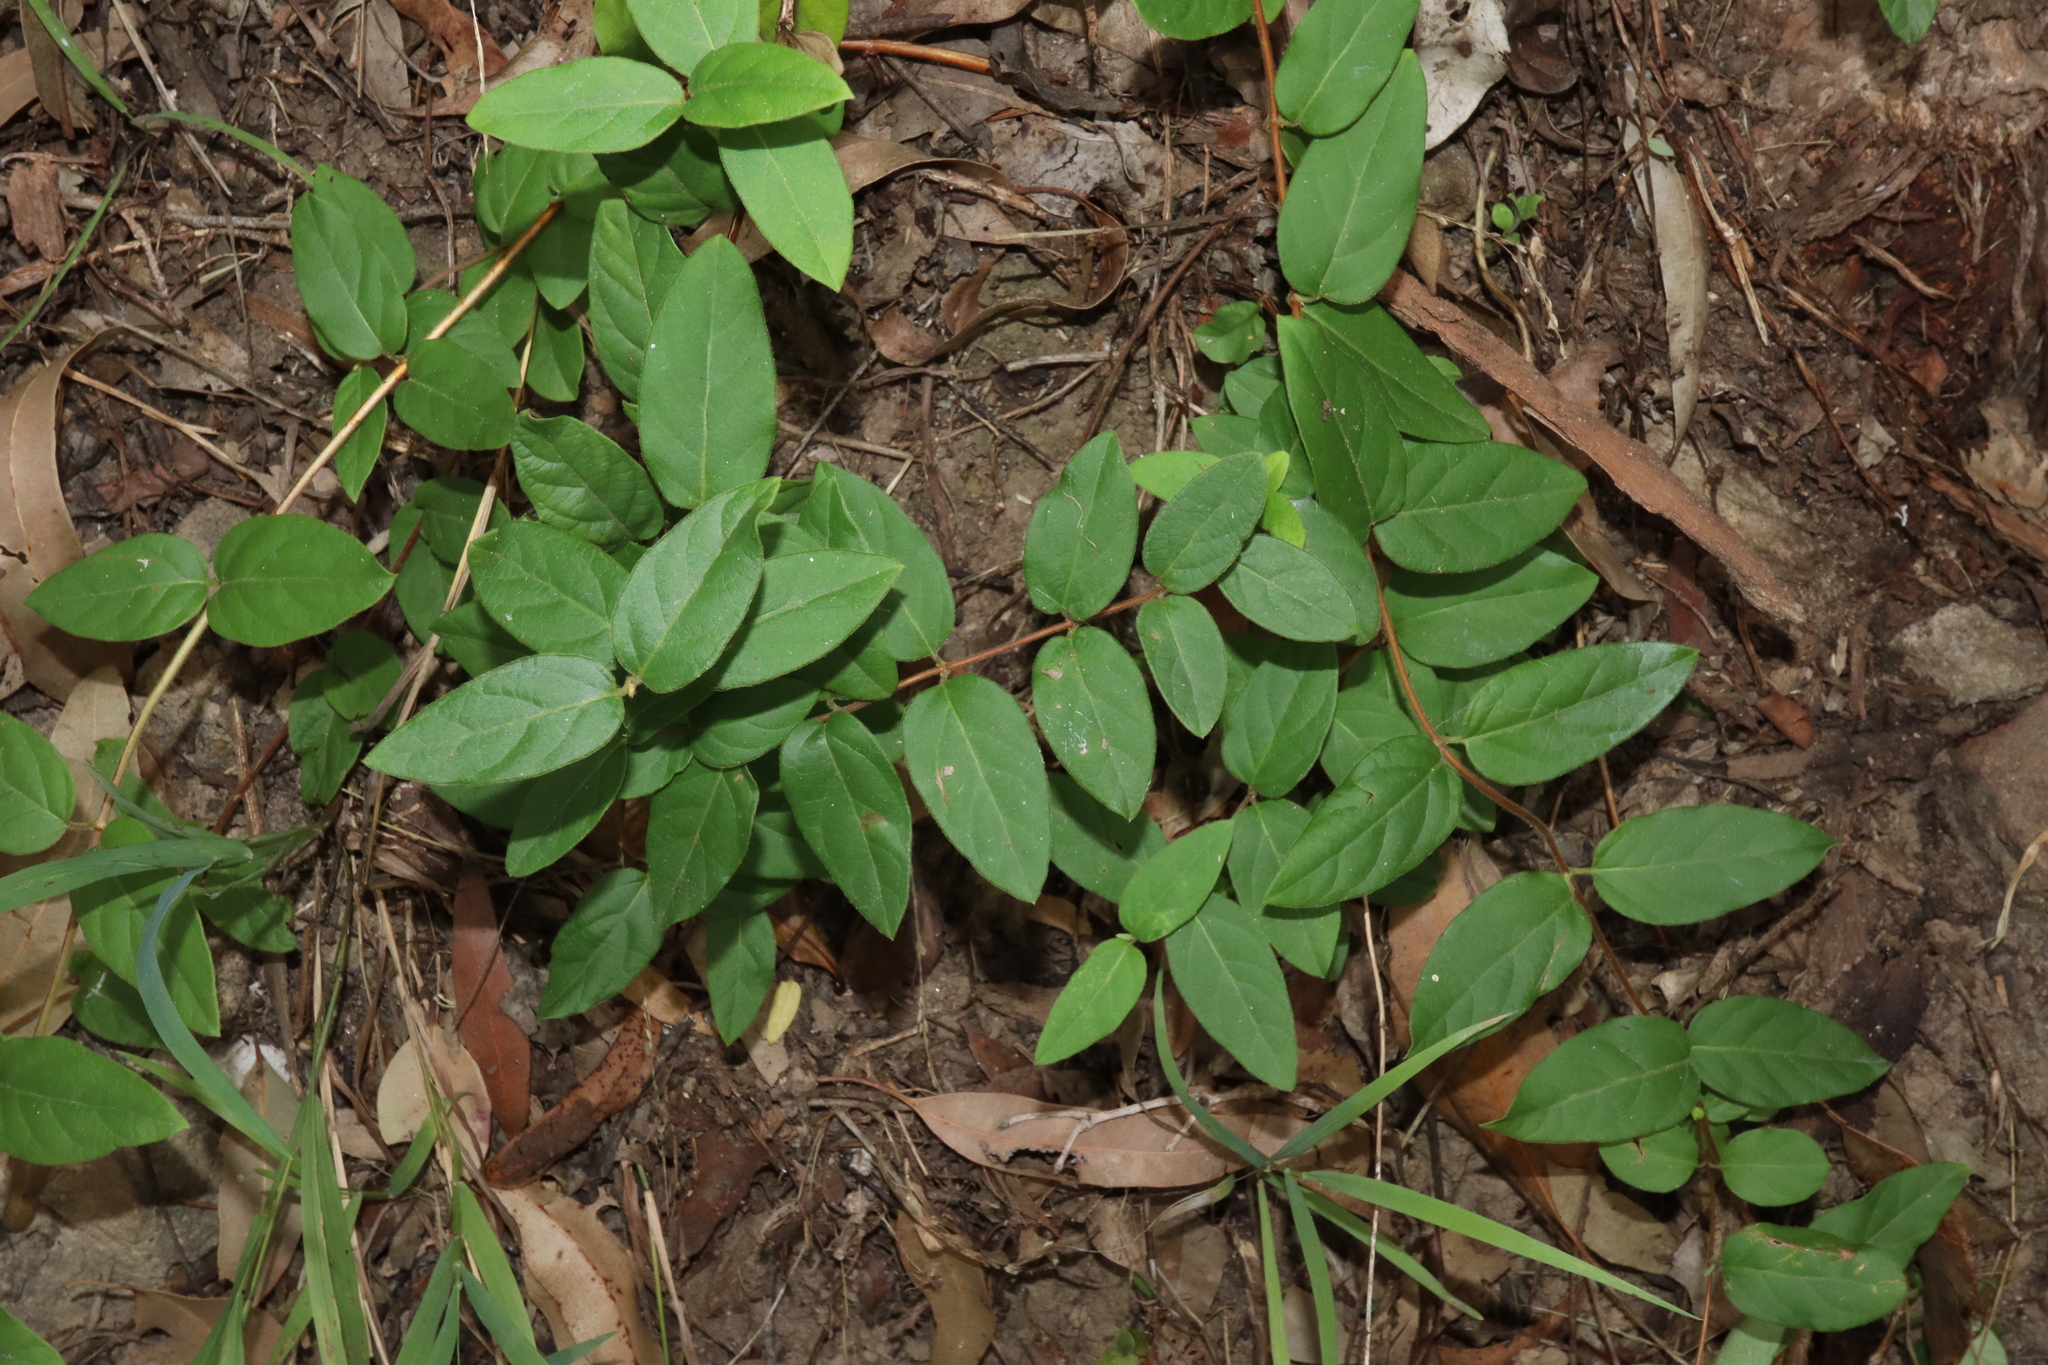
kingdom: Plantae
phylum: Tracheophyta
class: Magnoliopsida
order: Dipsacales
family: Caprifoliaceae
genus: Lonicera
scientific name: Lonicera japonica
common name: Japanese honeysuckle
